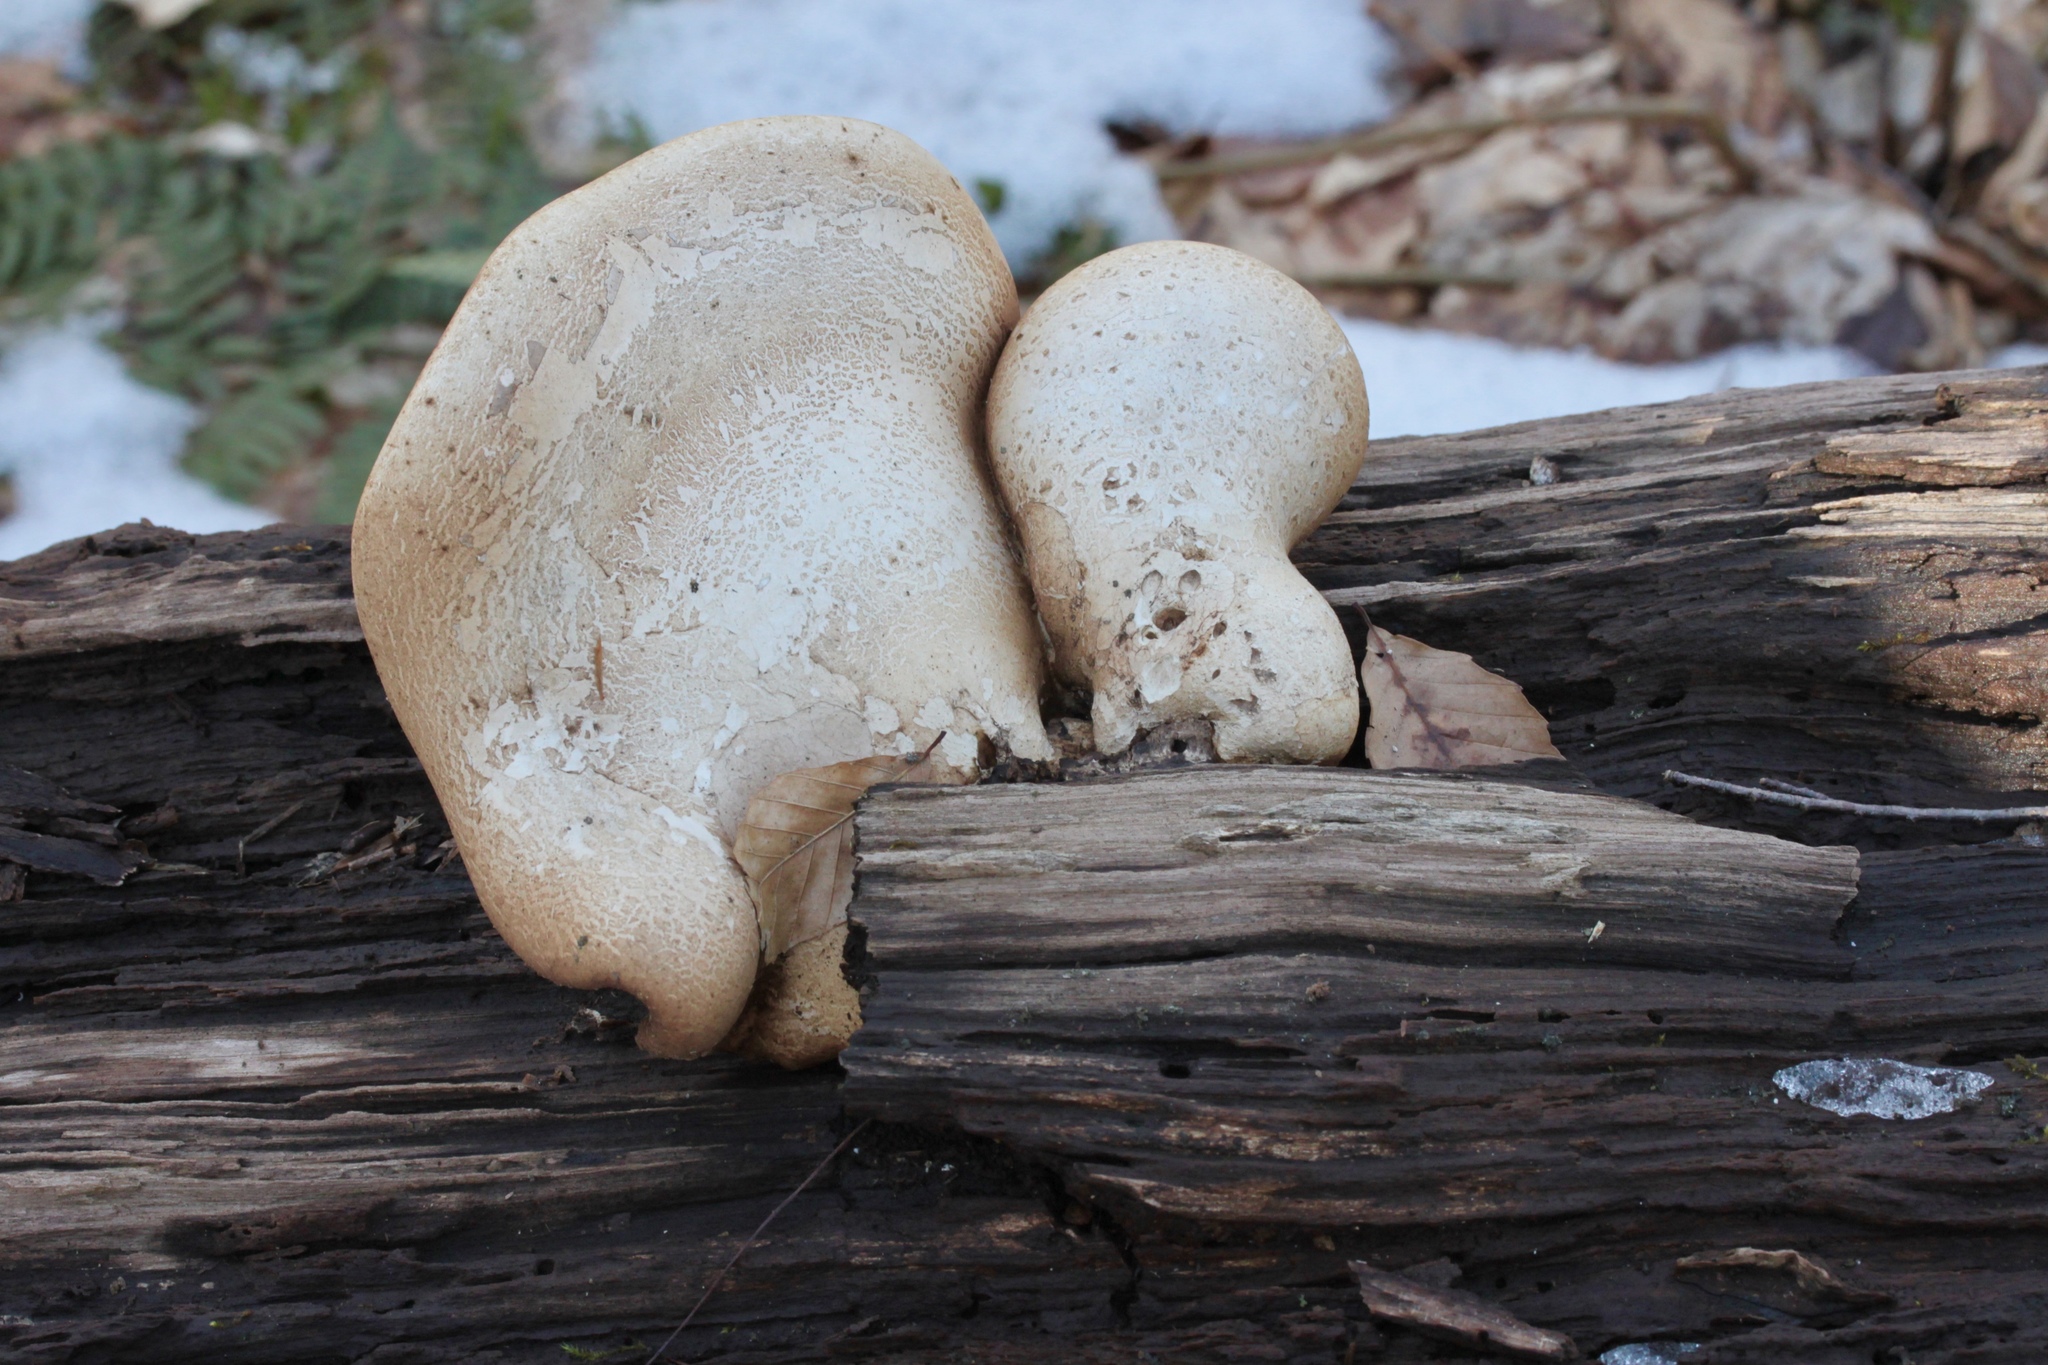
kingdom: Fungi
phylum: Basidiomycota
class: Agaricomycetes
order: Polyporales
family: Fomitopsidaceae
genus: Fomitopsis
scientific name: Fomitopsis betulina
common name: Birch polypore
